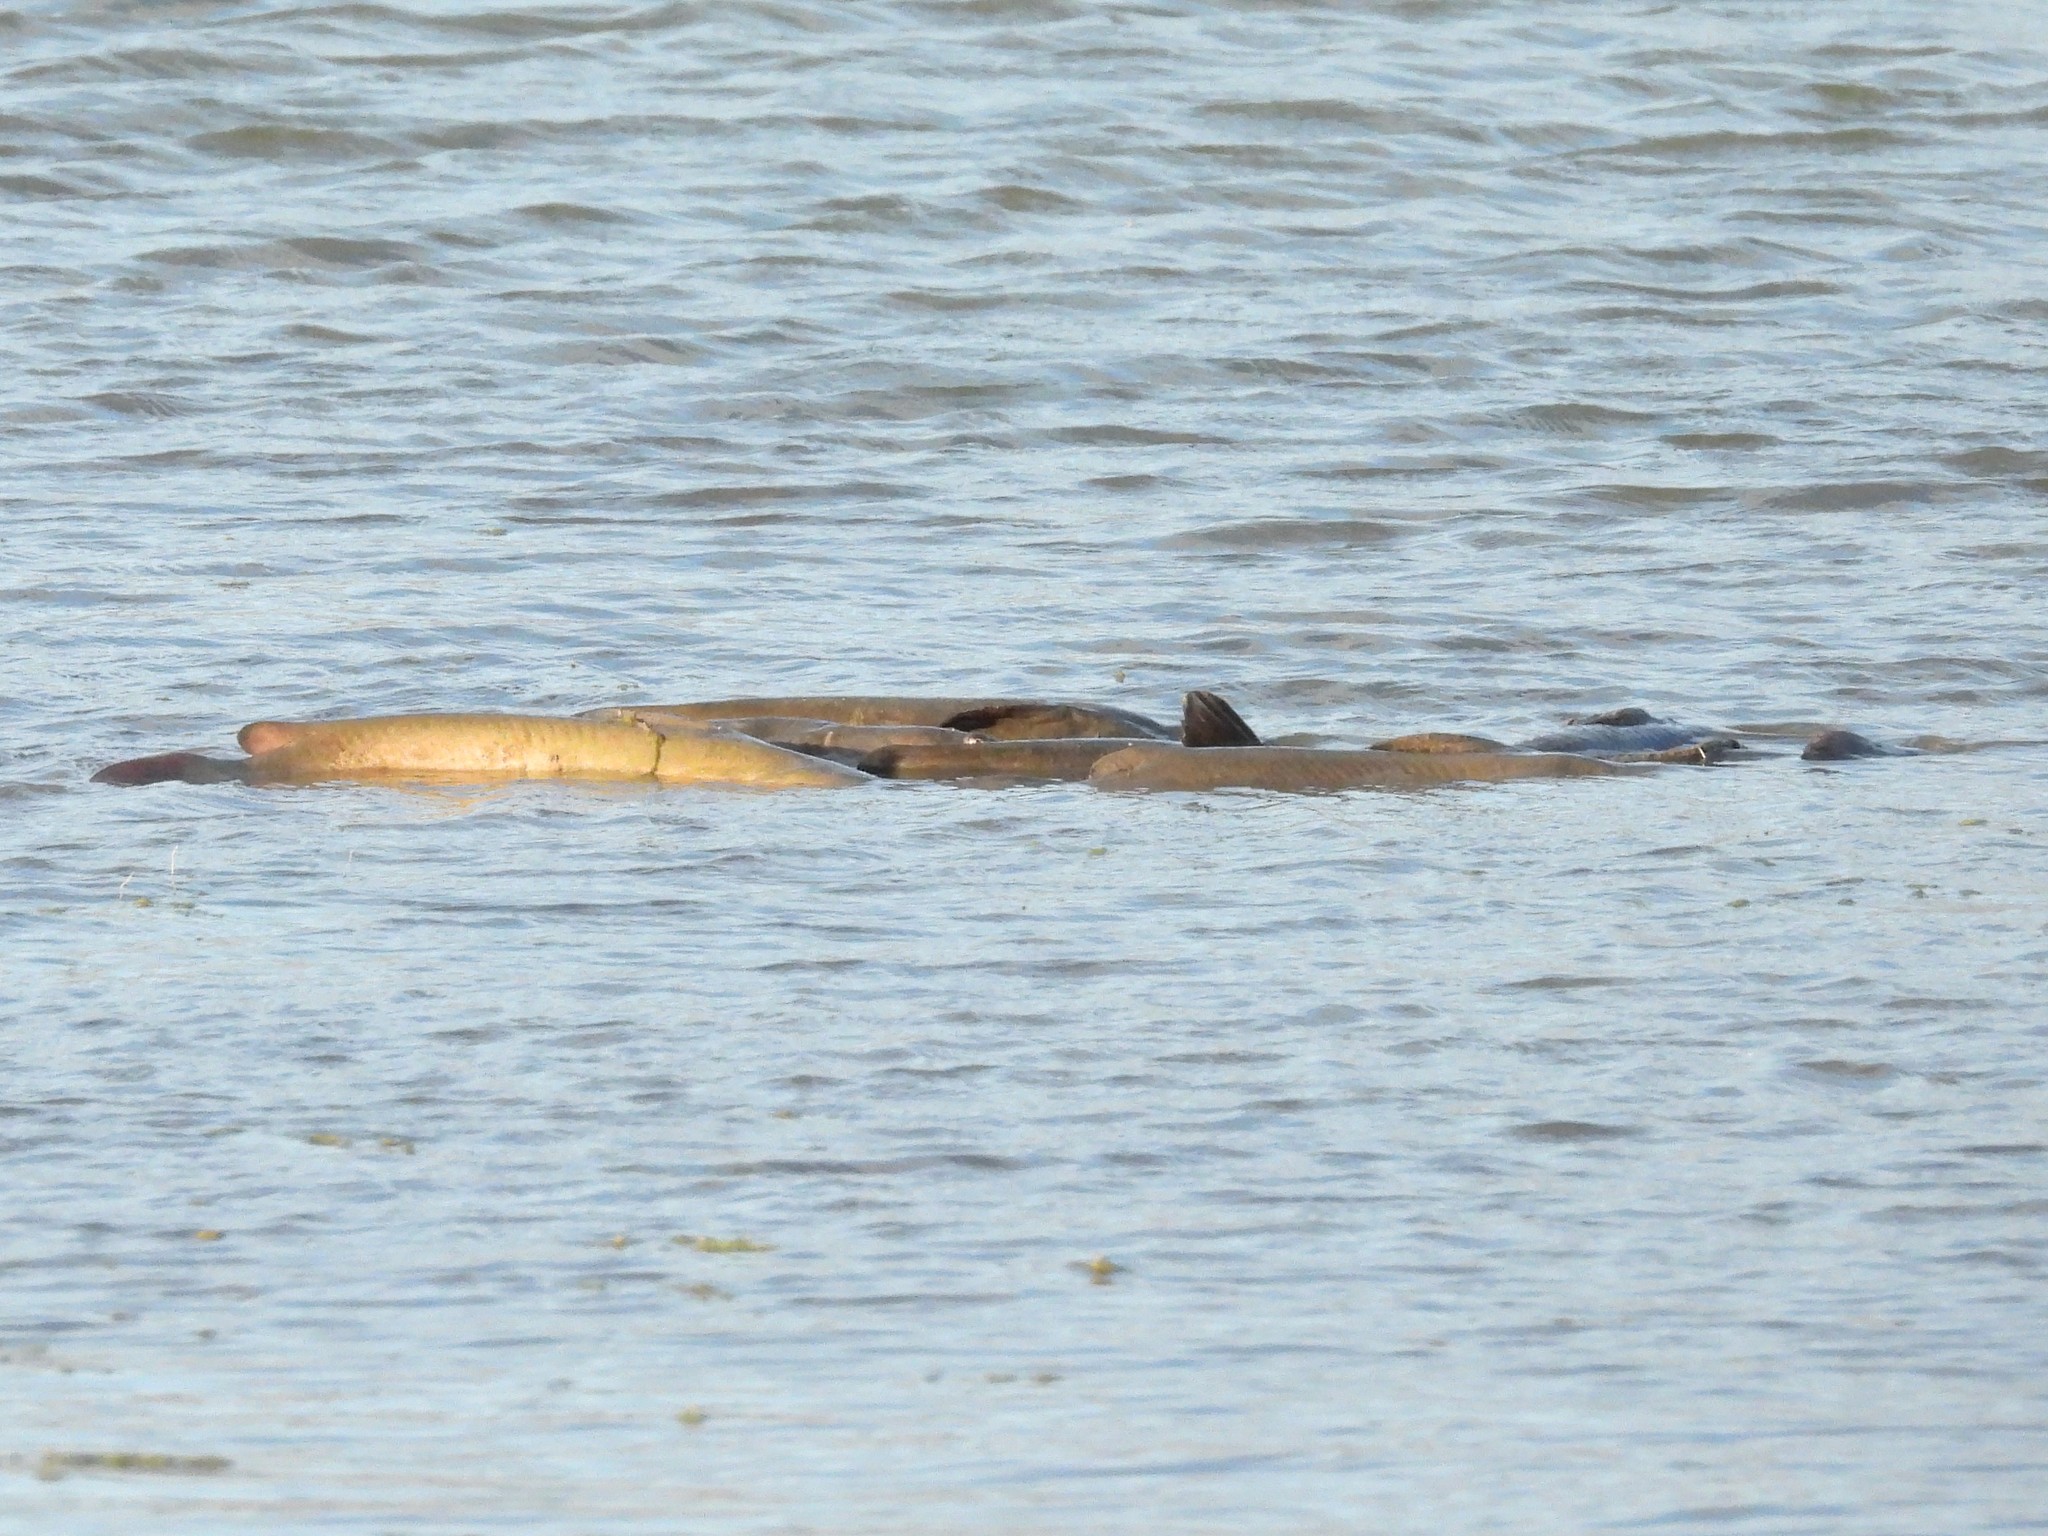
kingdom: Animalia
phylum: Chordata
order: Siluriformes
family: Ictaluridae
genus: Ictalurus
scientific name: Ictalurus punctatus
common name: Channel catfish
